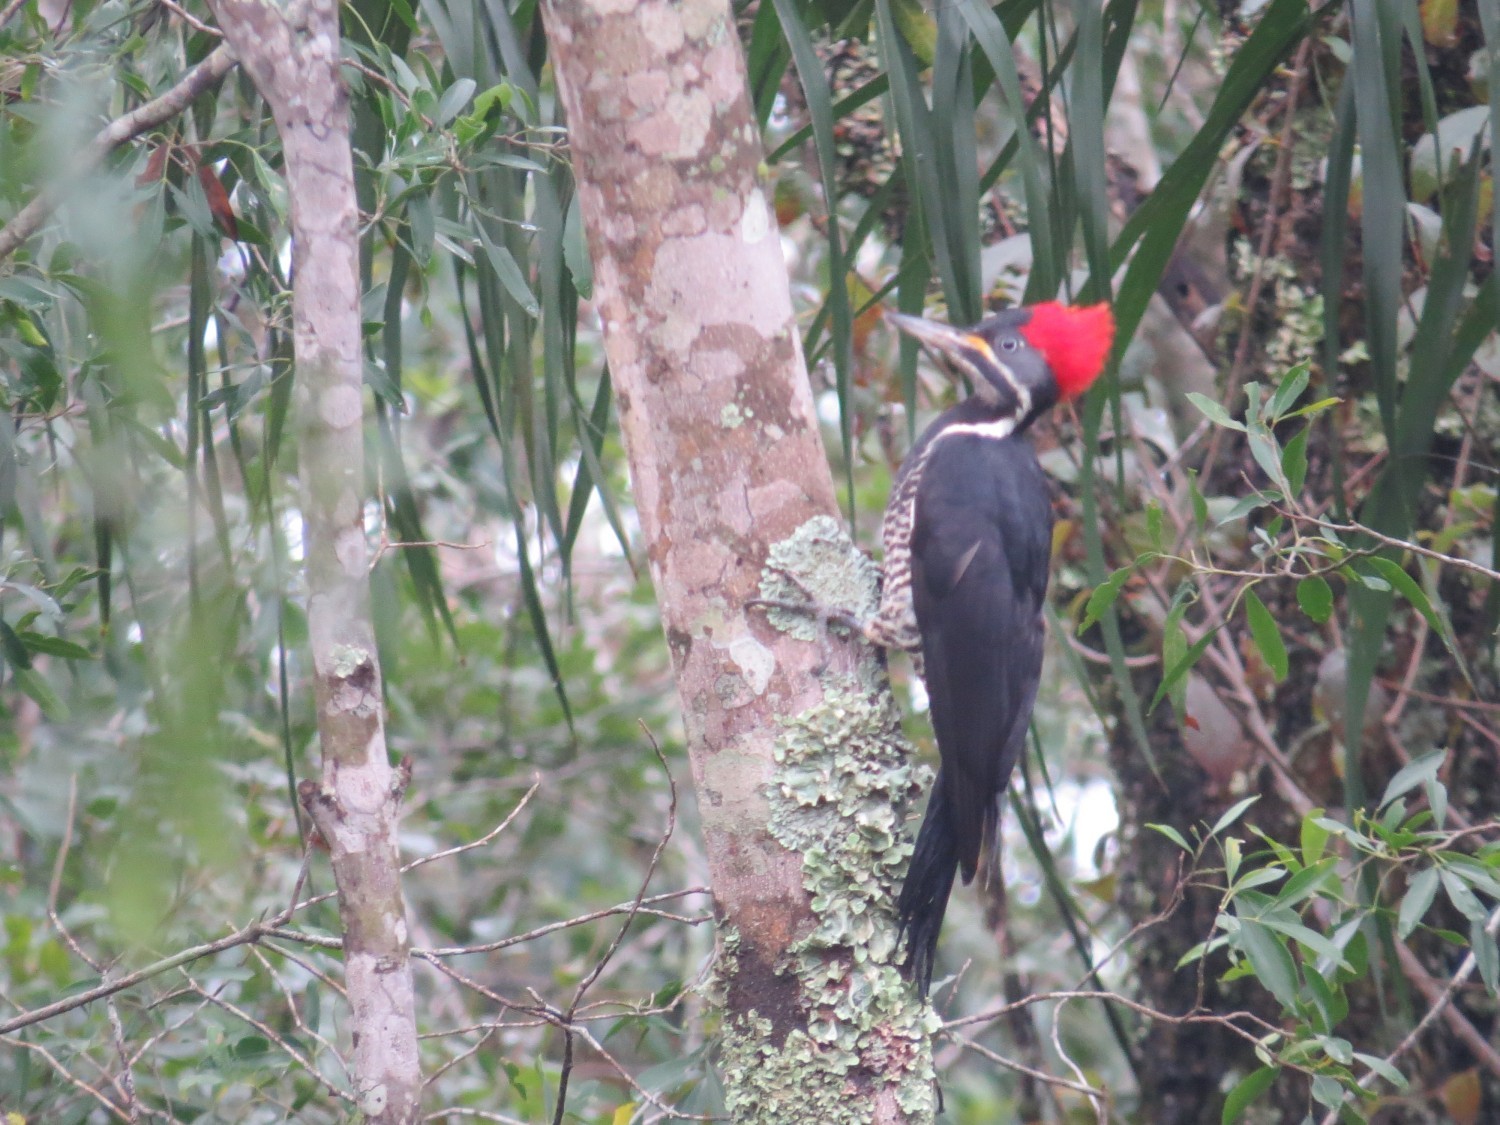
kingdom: Animalia
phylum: Chordata
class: Aves
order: Piciformes
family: Picidae
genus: Dryocopus
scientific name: Dryocopus lineatus
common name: Lineated woodpecker
